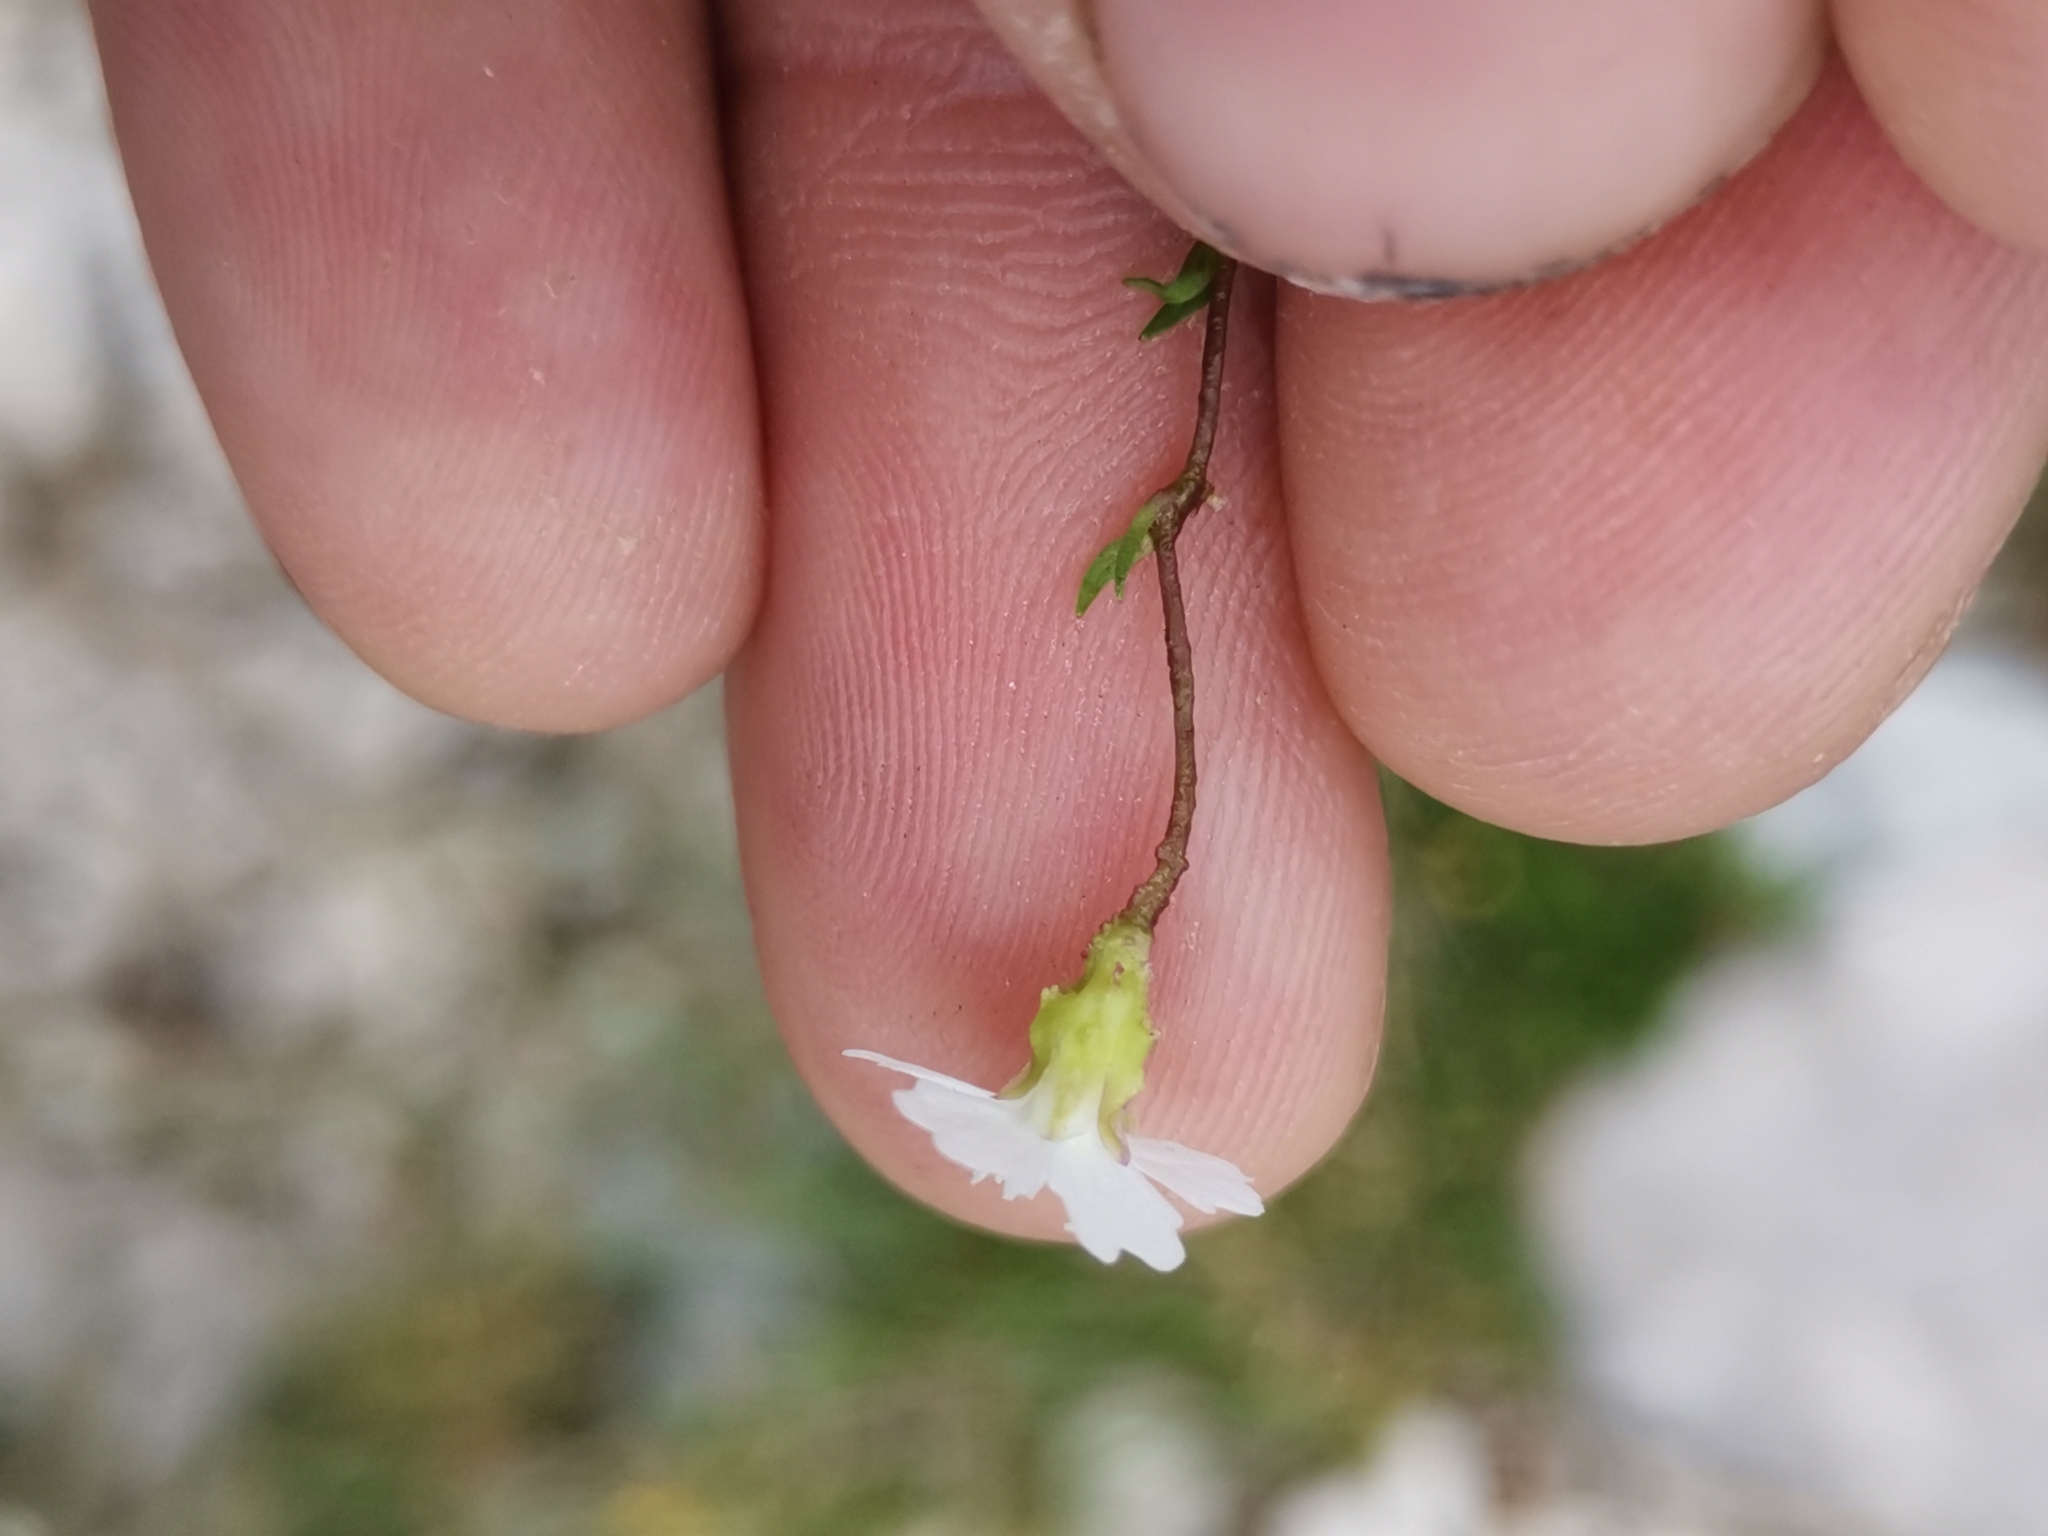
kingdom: Plantae
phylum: Tracheophyta
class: Magnoliopsida
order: Caryophyllales
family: Caryophyllaceae
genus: Heliosperma
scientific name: Heliosperma pusillum
